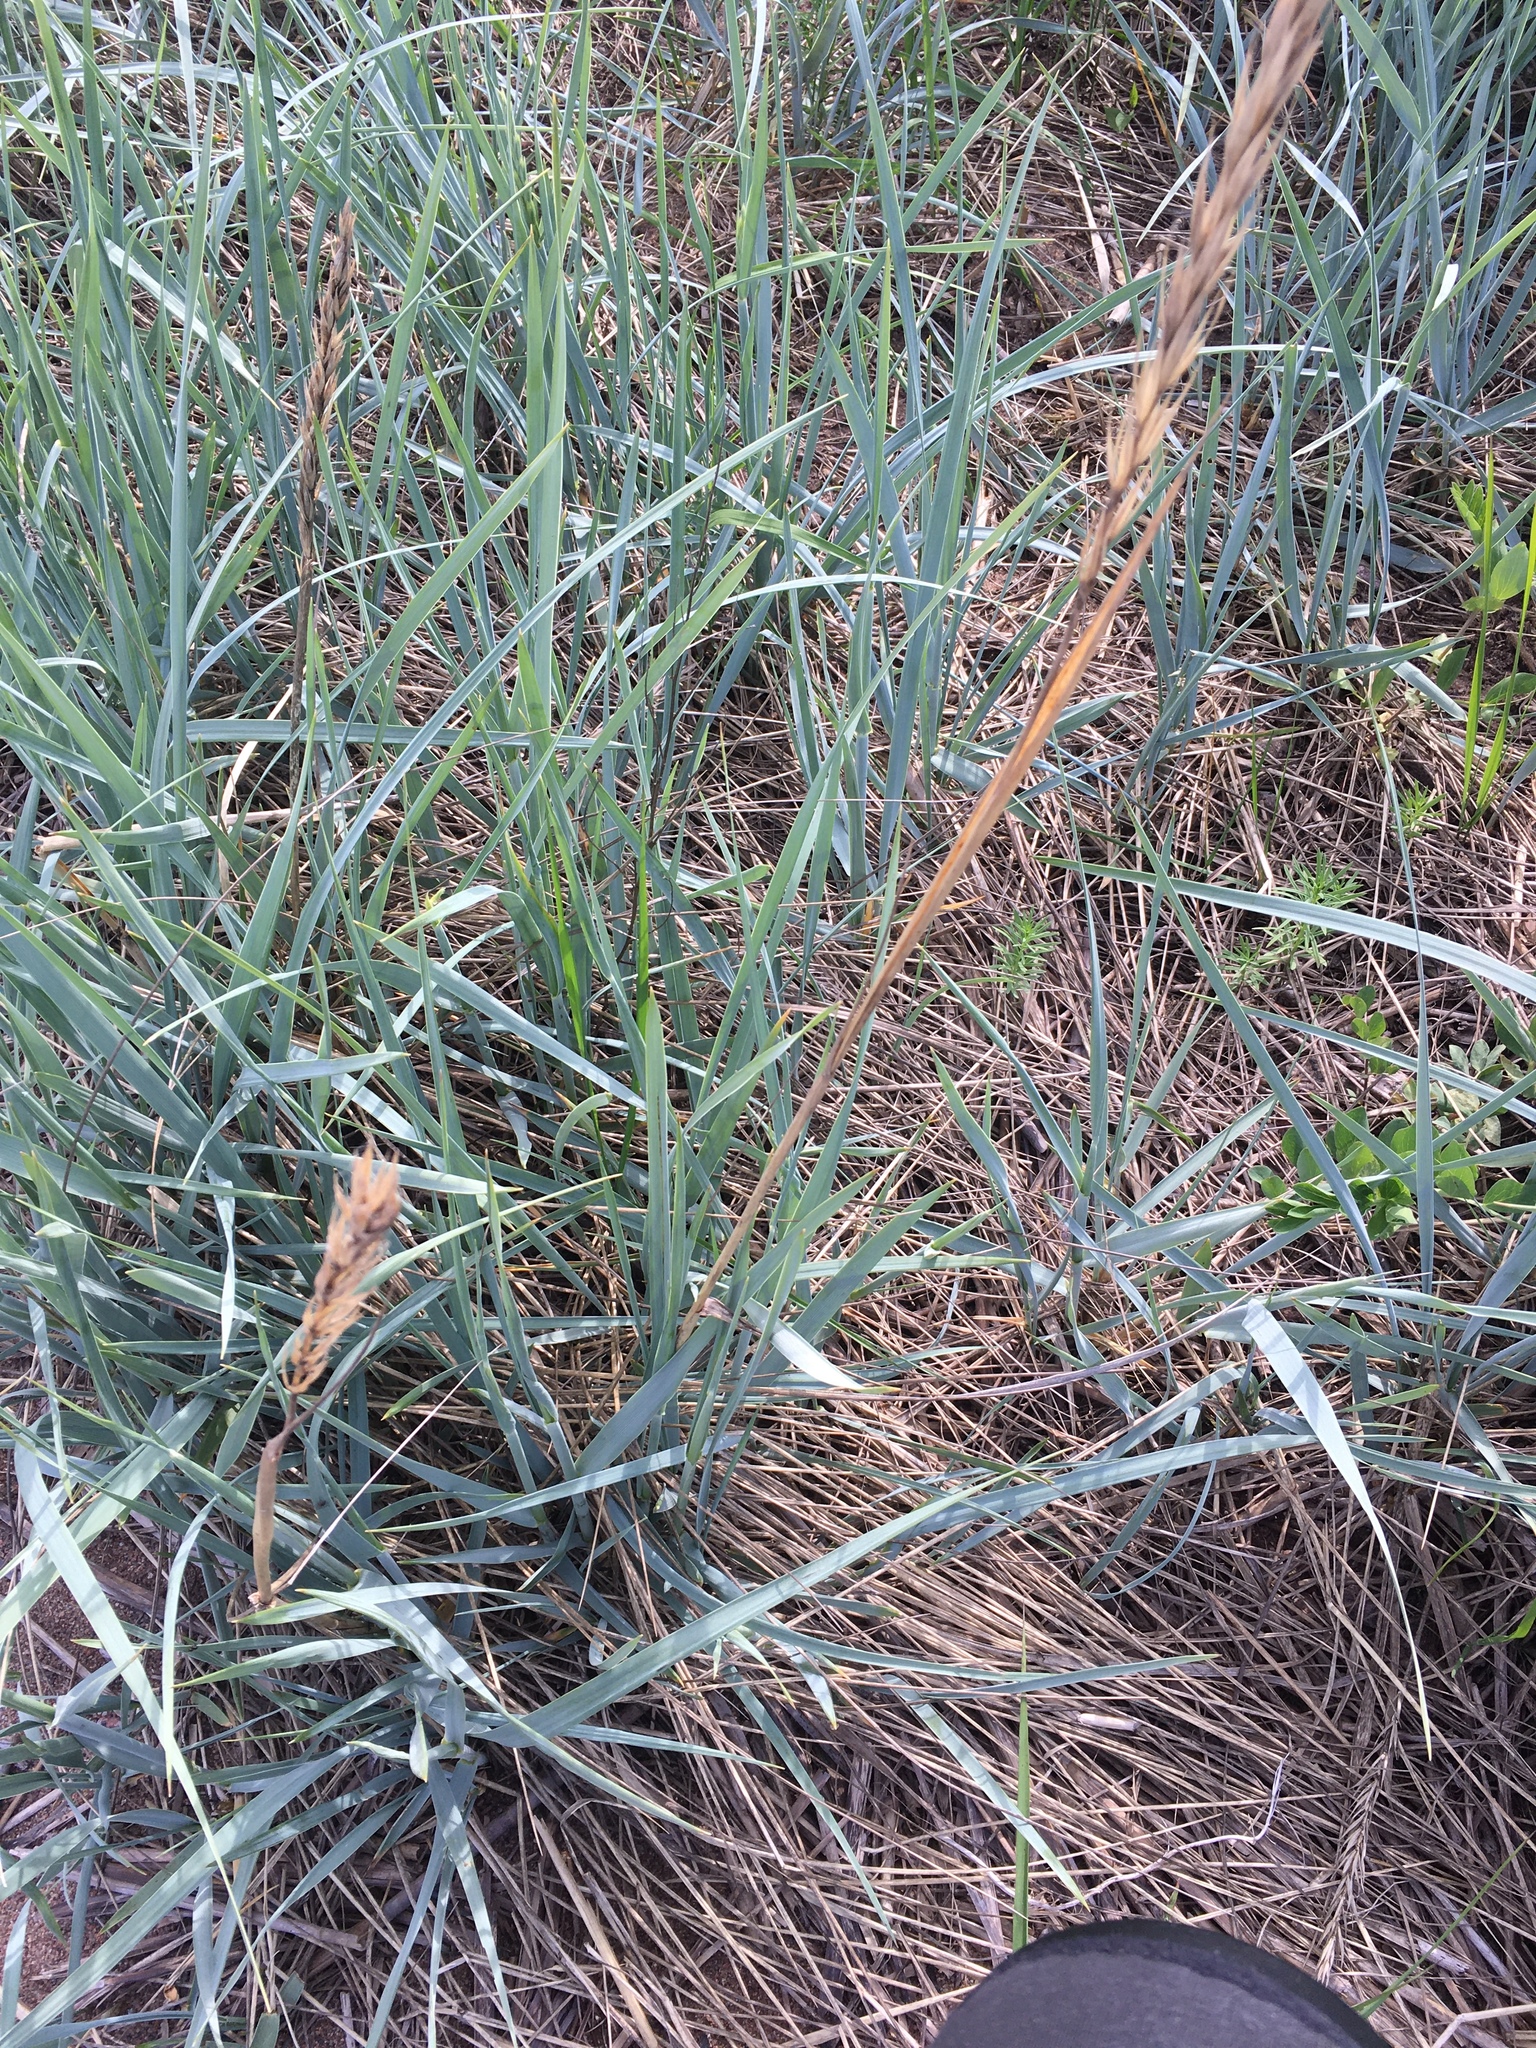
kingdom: Plantae
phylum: Tracheophyta
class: Liliopsida
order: Poales
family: Poaceae
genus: Leymus
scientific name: Leymus arenarius
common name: Lyme-grass
